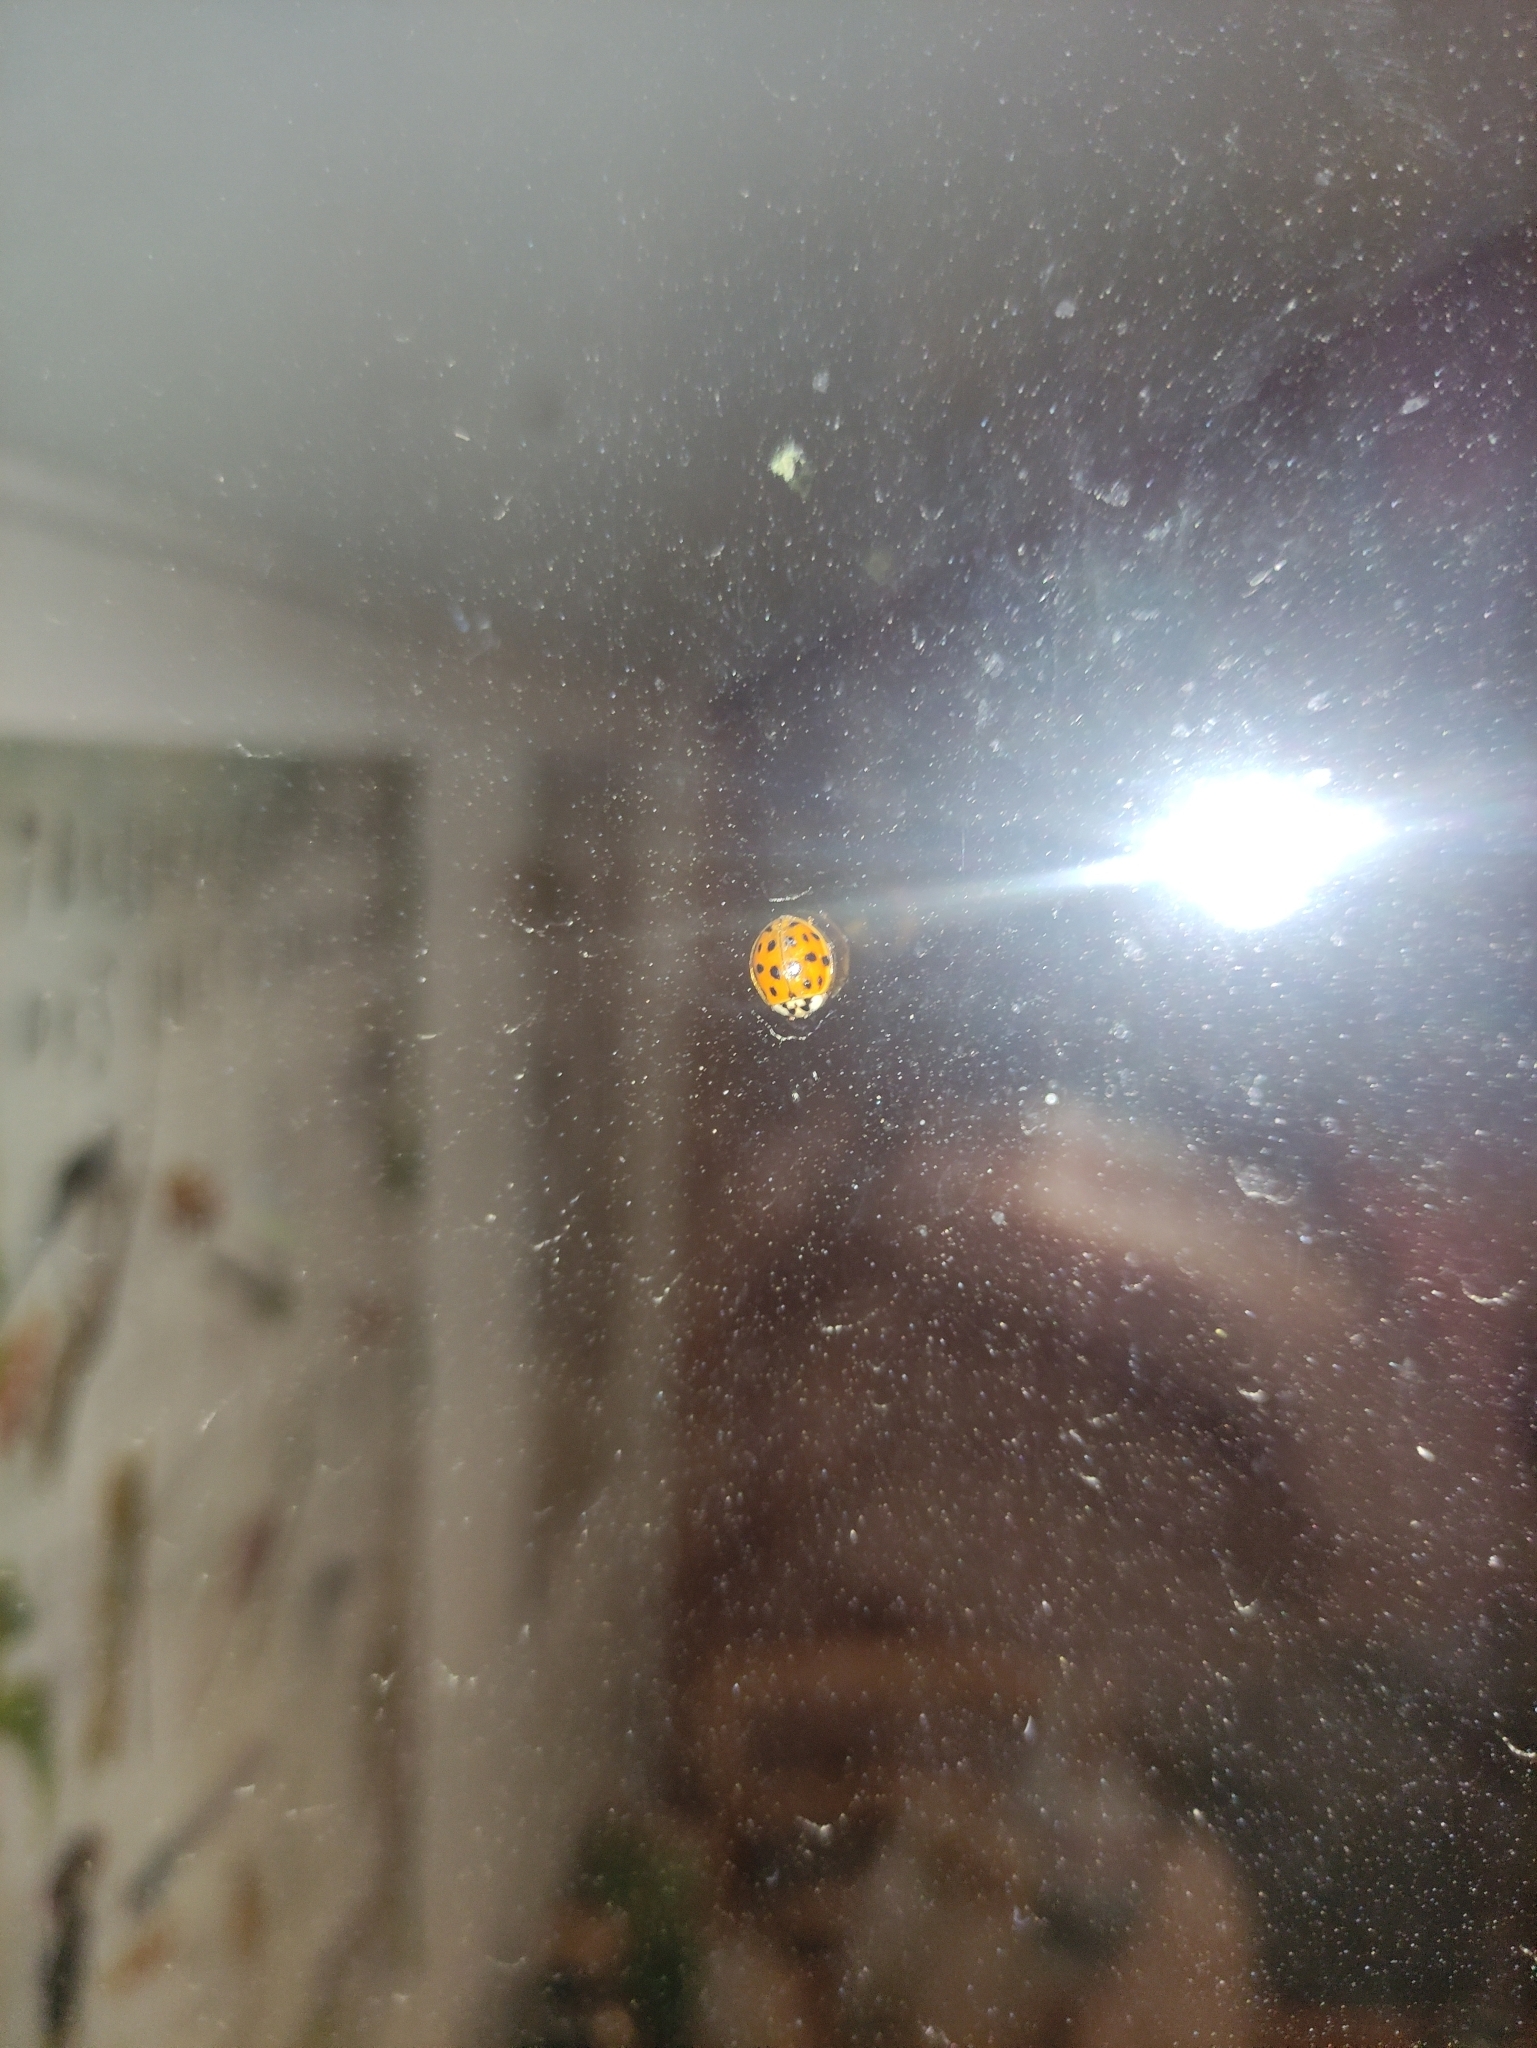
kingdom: Animalia
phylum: Arthropoda
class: Insecta
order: Coleoptera
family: Coccinellidae
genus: Harmonia
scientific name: Harmonia axyridis
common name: Harlequin ladybird
